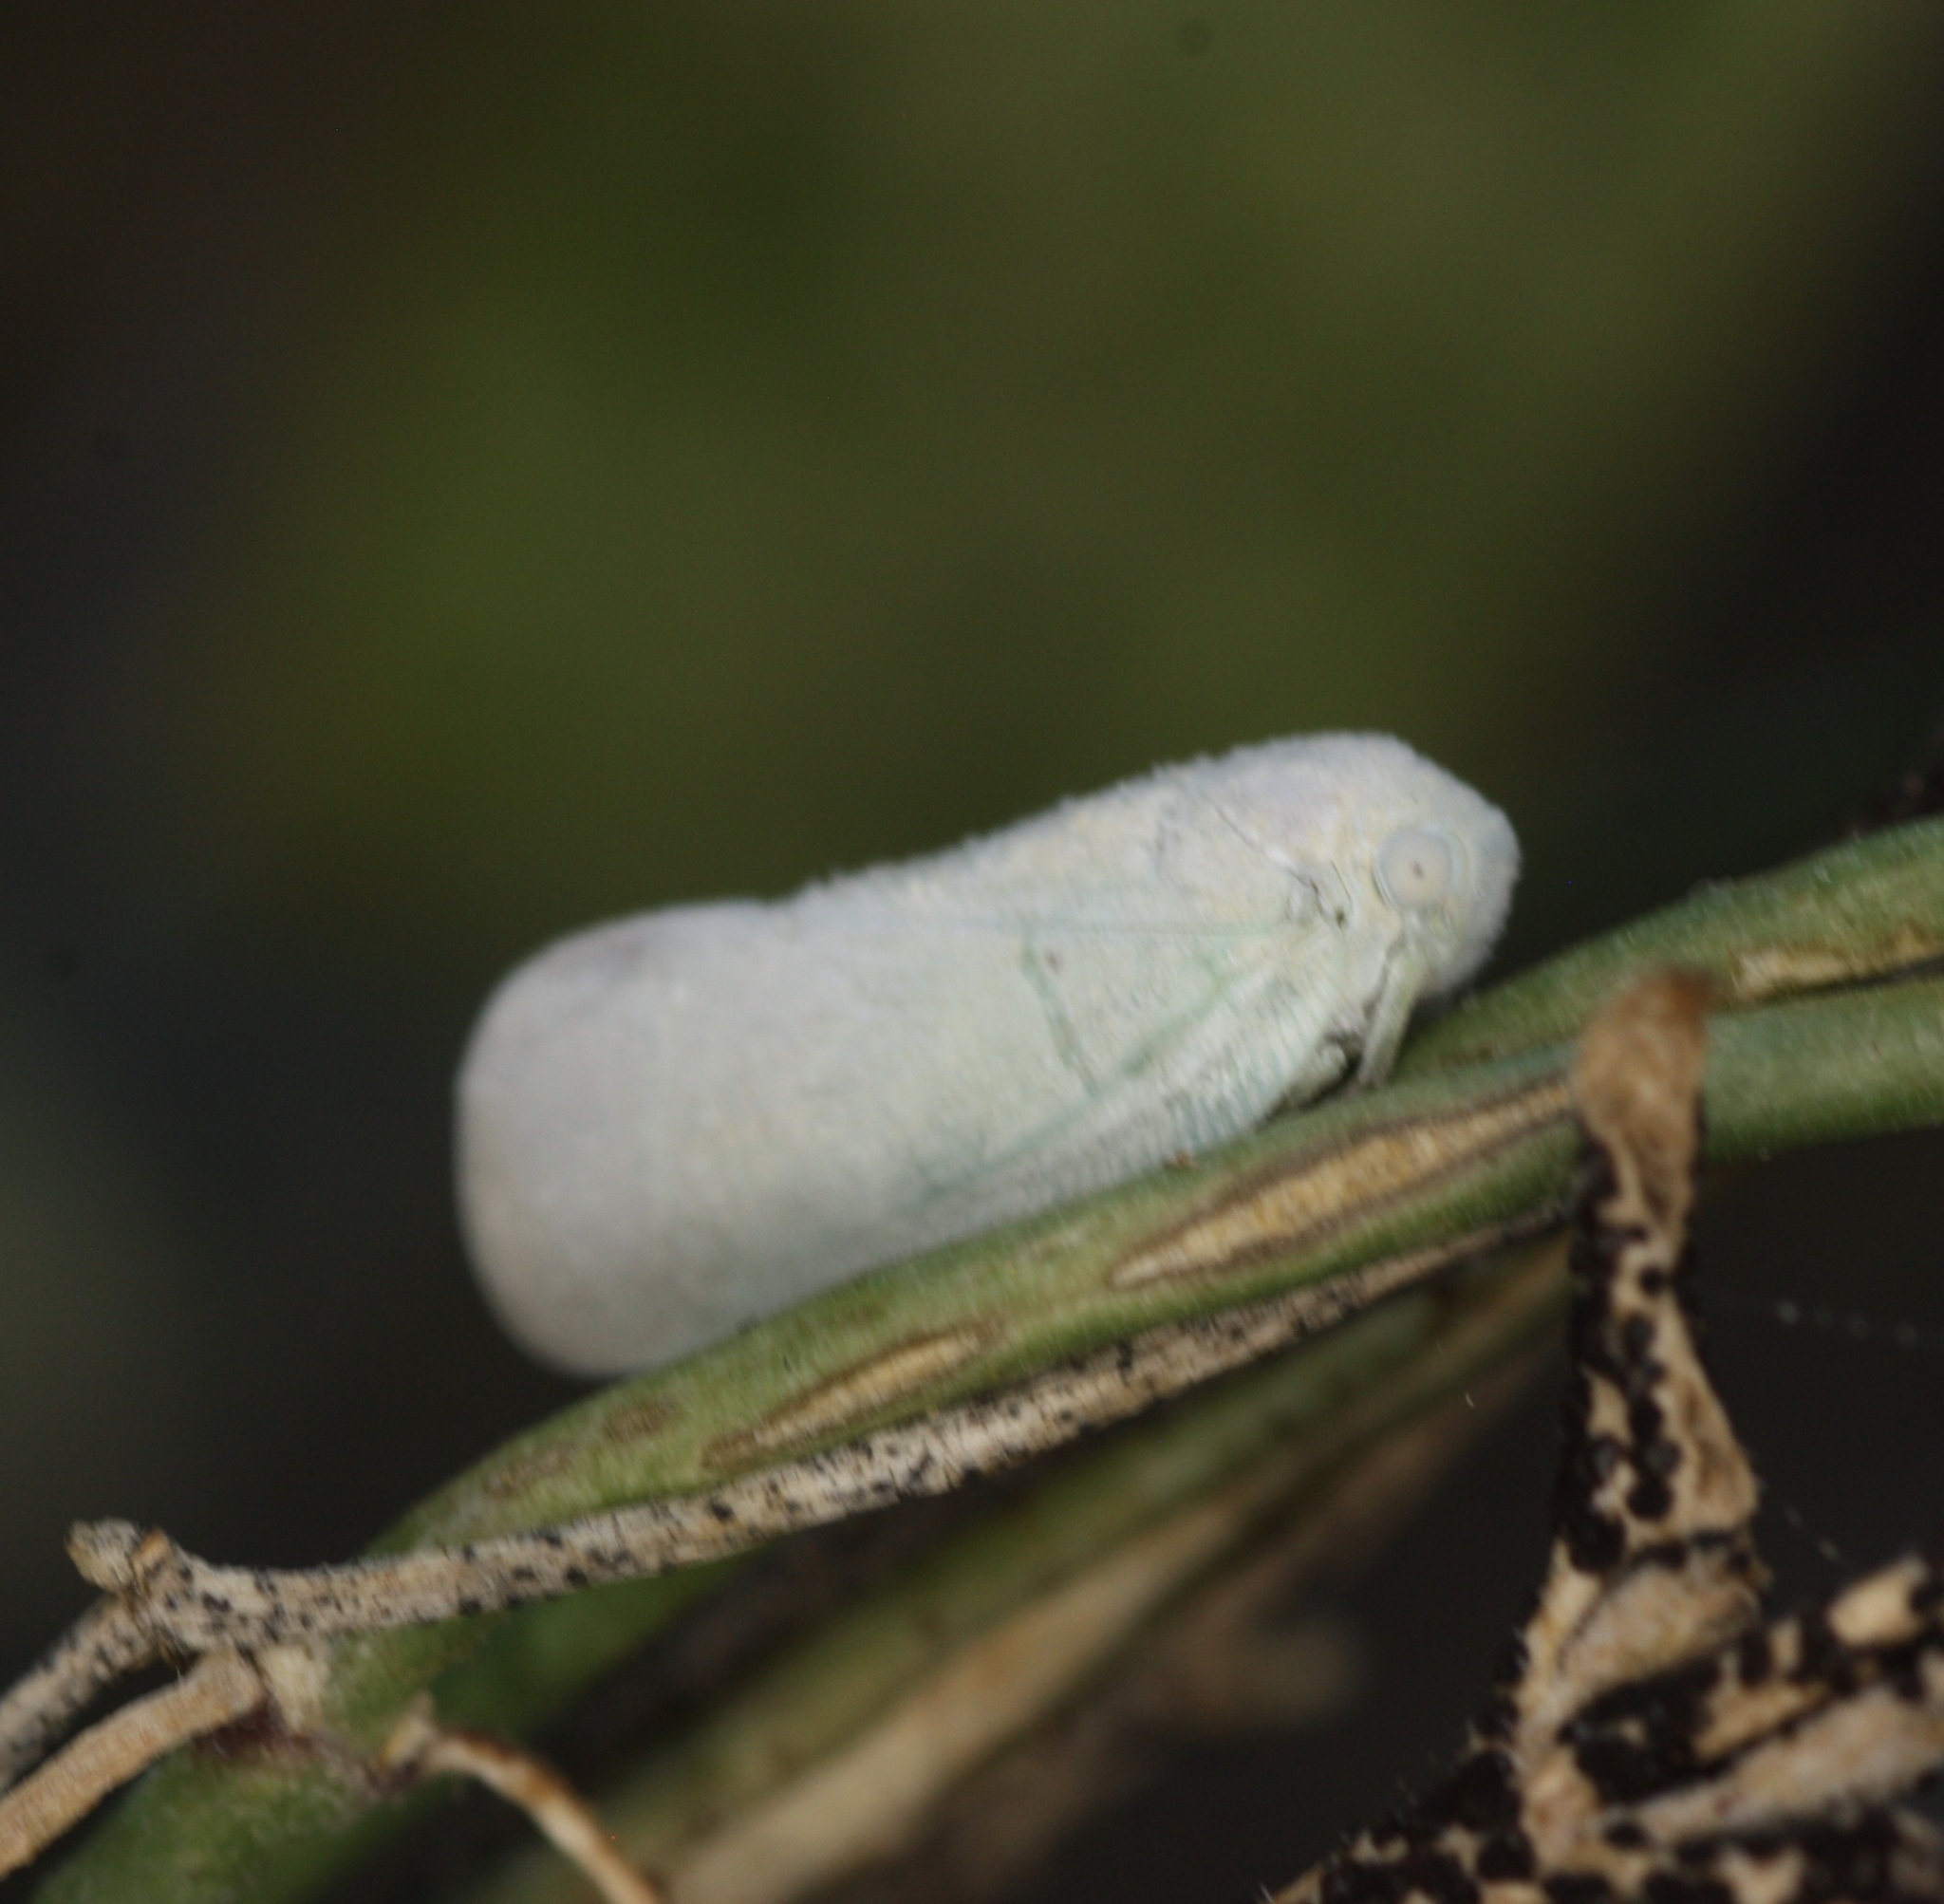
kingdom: Animalia
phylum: Arthropoda
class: Insecta
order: Hemiptera
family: Flatidae
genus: Flatormenis
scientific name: Flatormenis saucia
